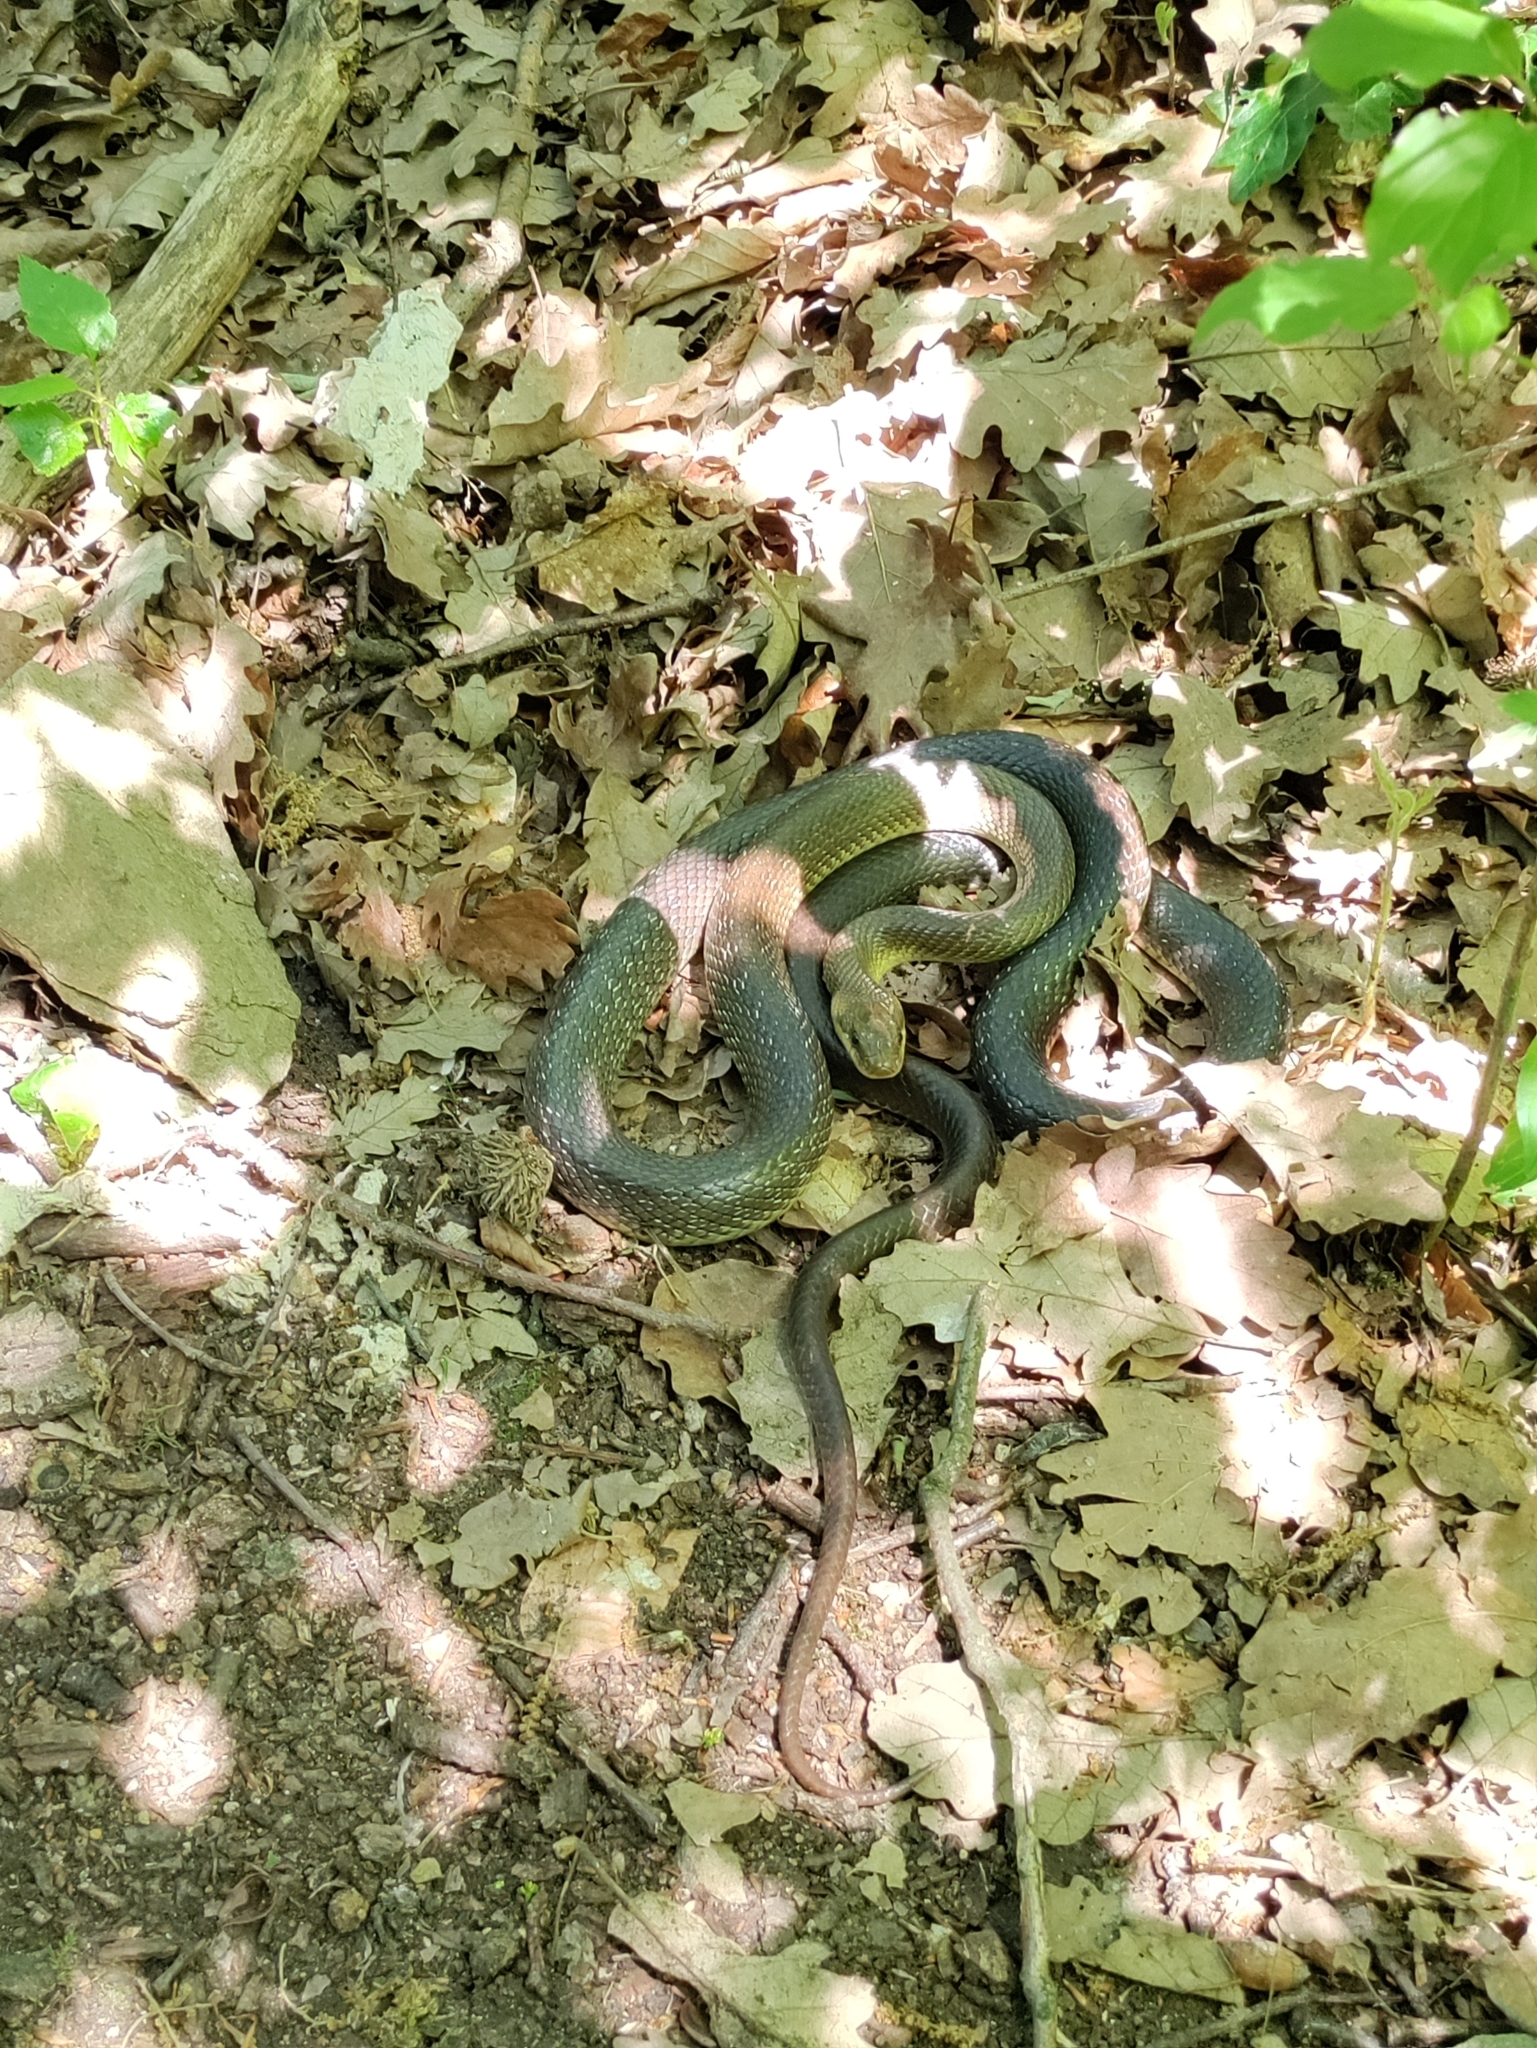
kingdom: Animalia
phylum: Chordata
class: Squamata
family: Colubridae
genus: Zamenis
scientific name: Zamenis longissimus
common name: Aesculapean snake
